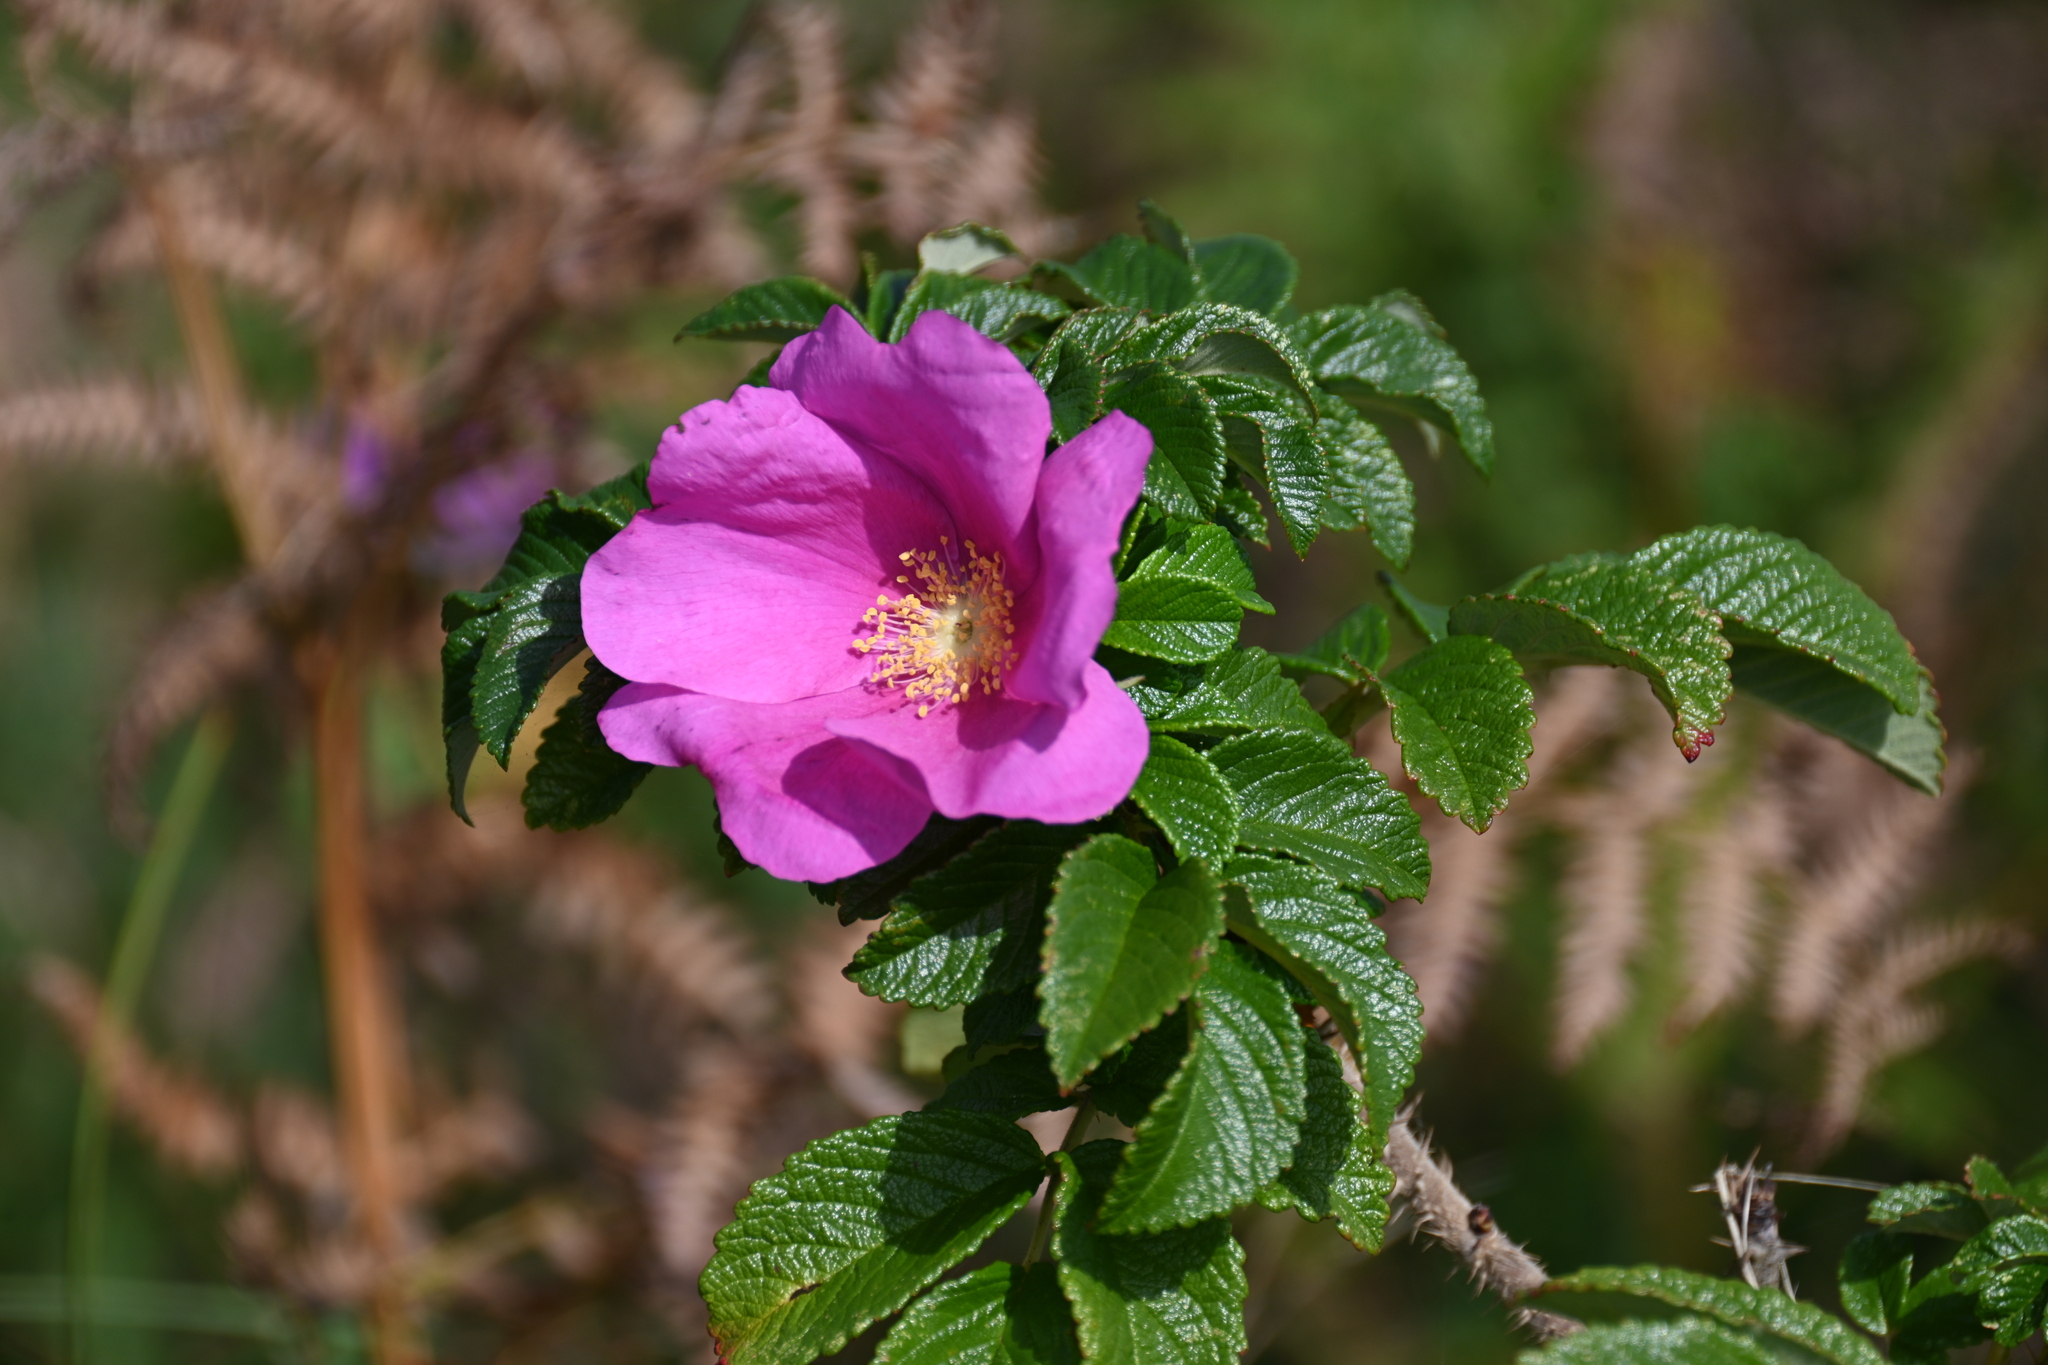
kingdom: Plantae
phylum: Tracheophyta
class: Magnoliopsida
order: Rosales
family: Rosaceae
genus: Rosa
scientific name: Rosa rugosa
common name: Japanese rose
